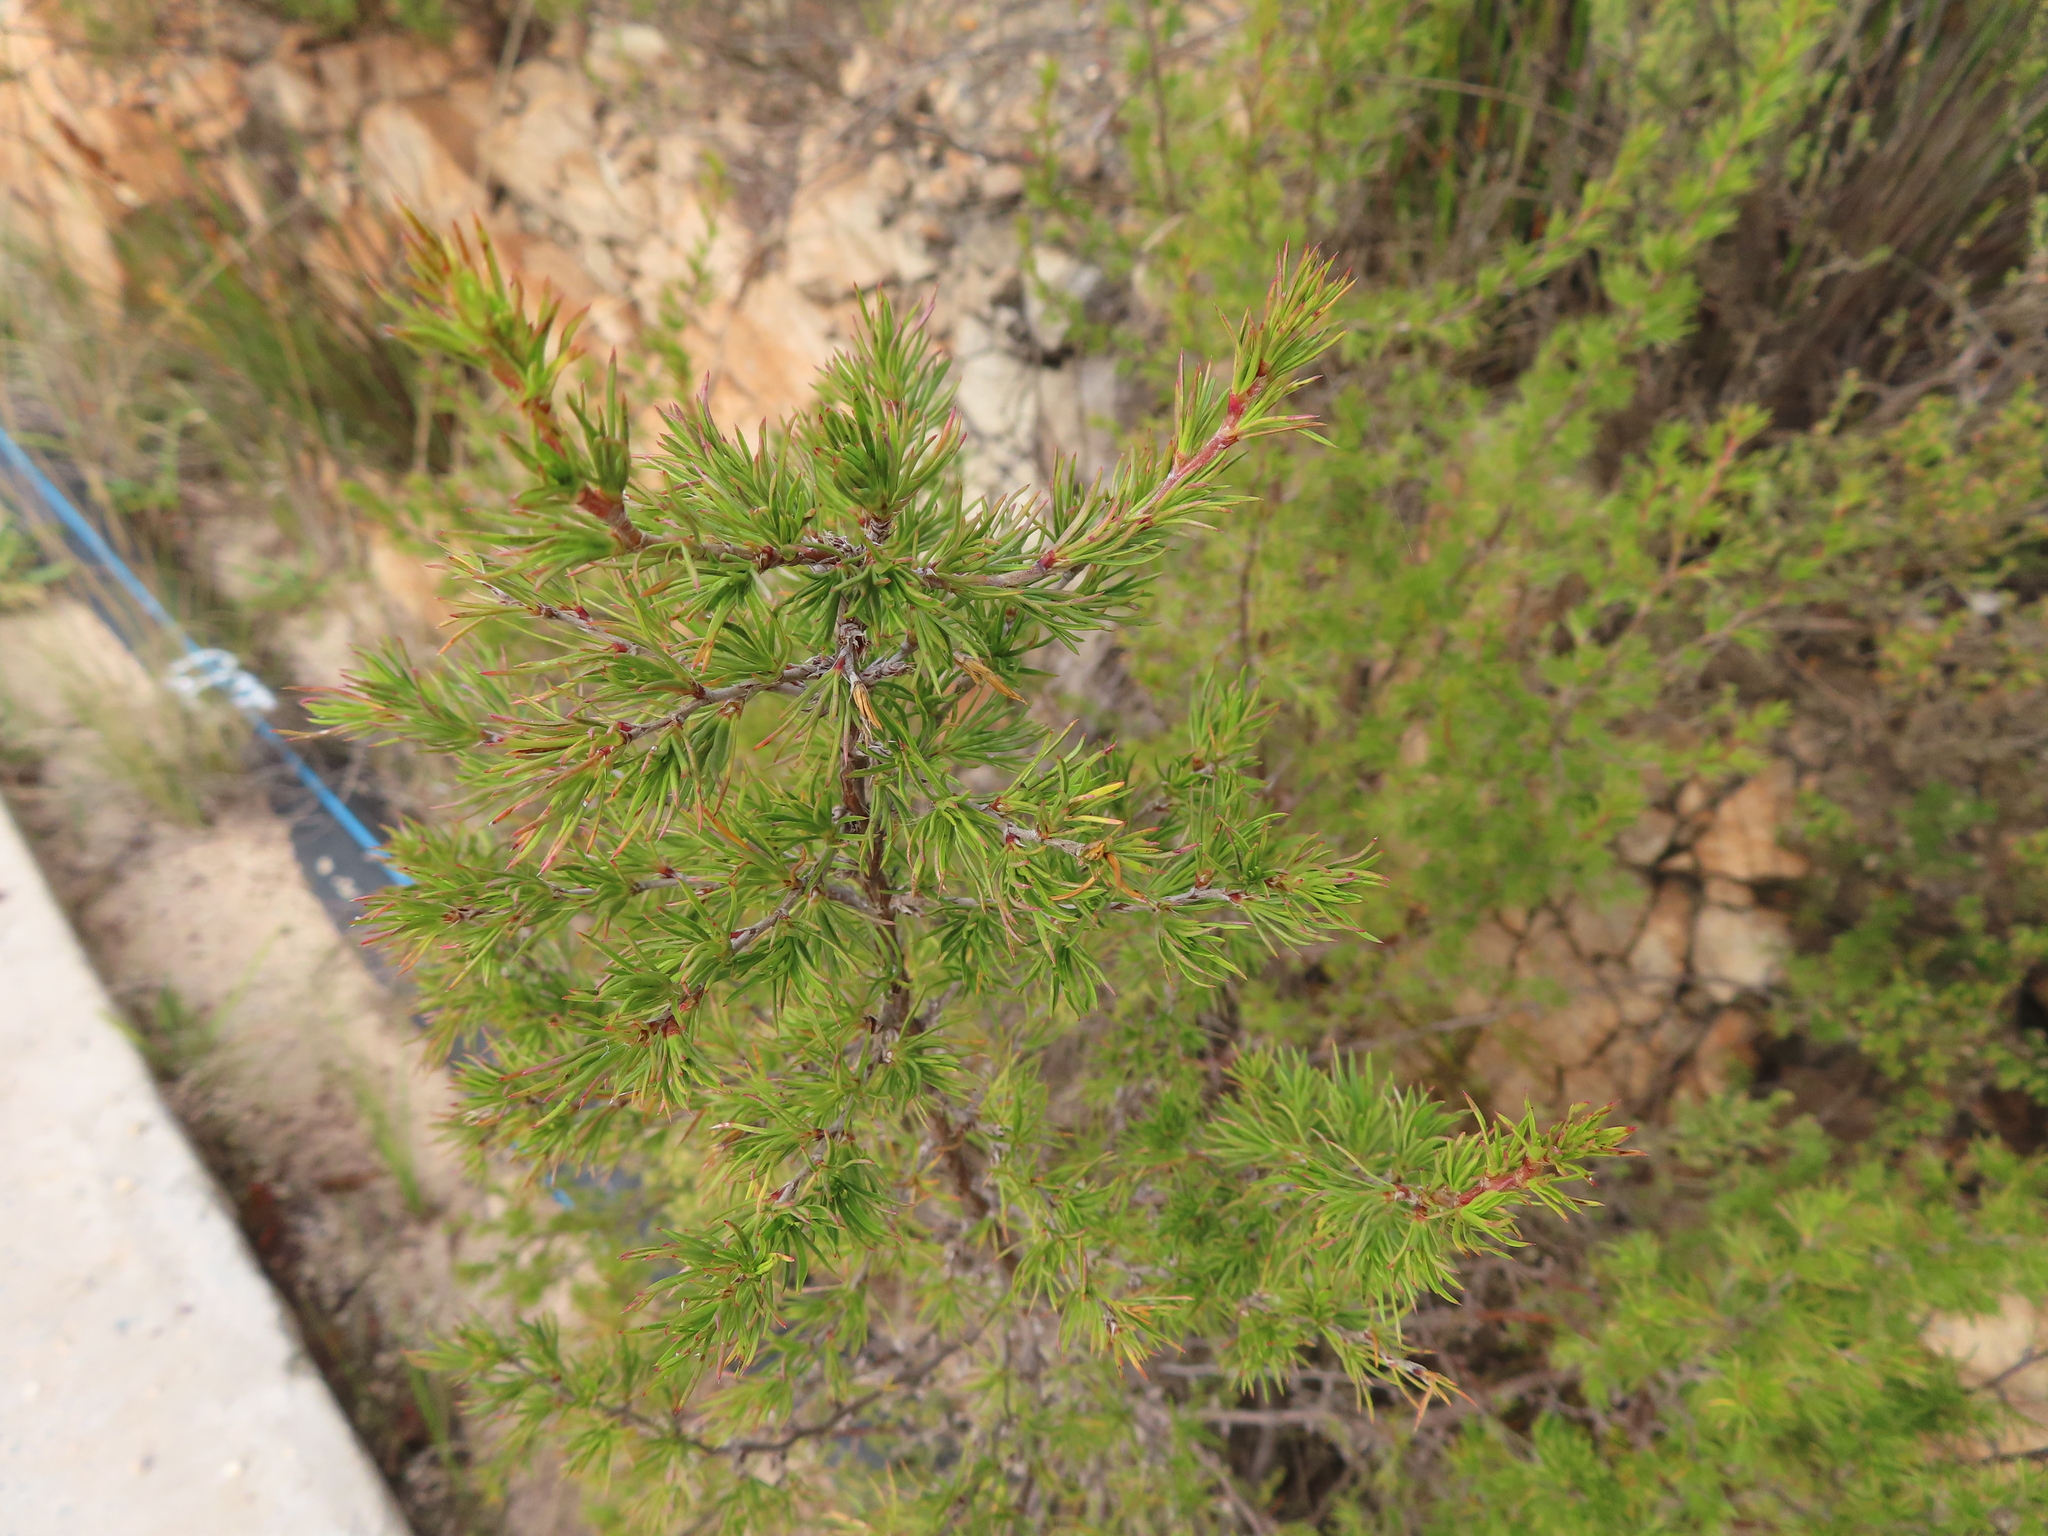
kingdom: Plantae
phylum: Tracheophyta
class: Magnoliopsida
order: Rosales
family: Rosaceae
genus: Cliffortia
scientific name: Cliffortia atrata
